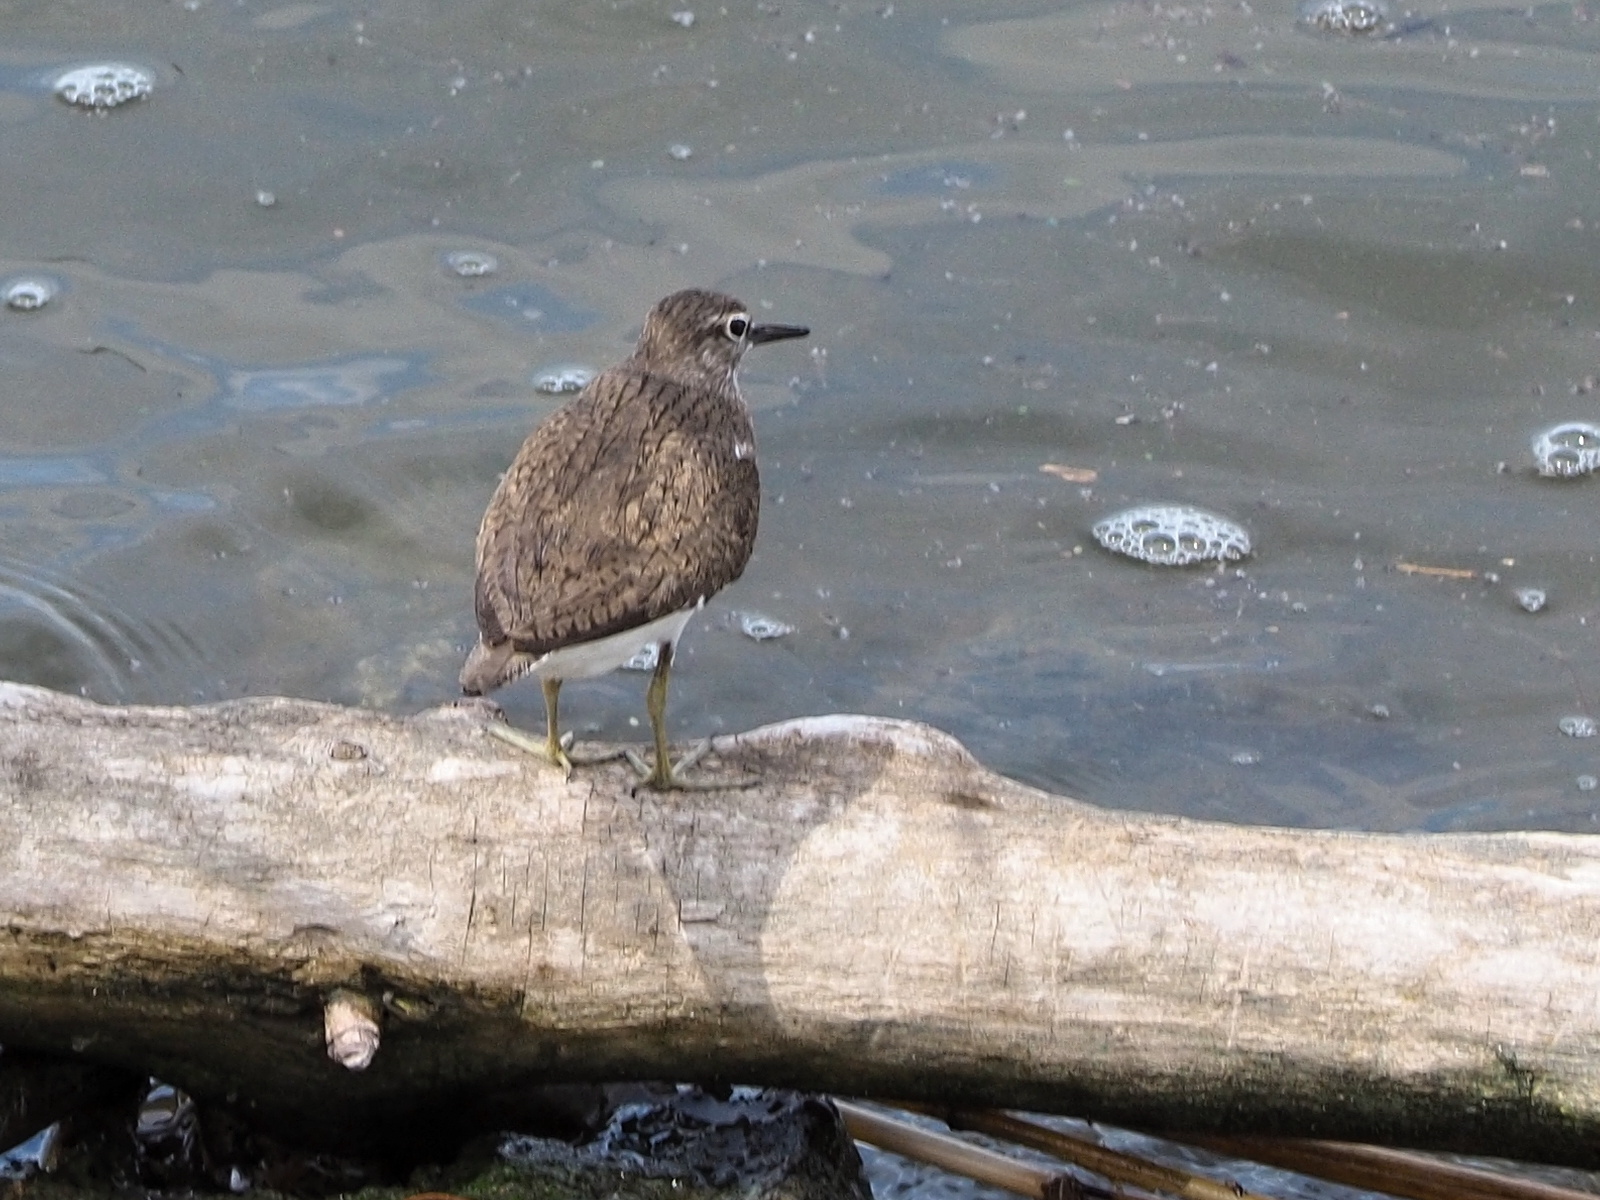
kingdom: Animalia
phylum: Chordata
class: Aves
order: Charadriiformes
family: Scolopacidae
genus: Actitis
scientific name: Actitis hypoleucos
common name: Common sandpiper
